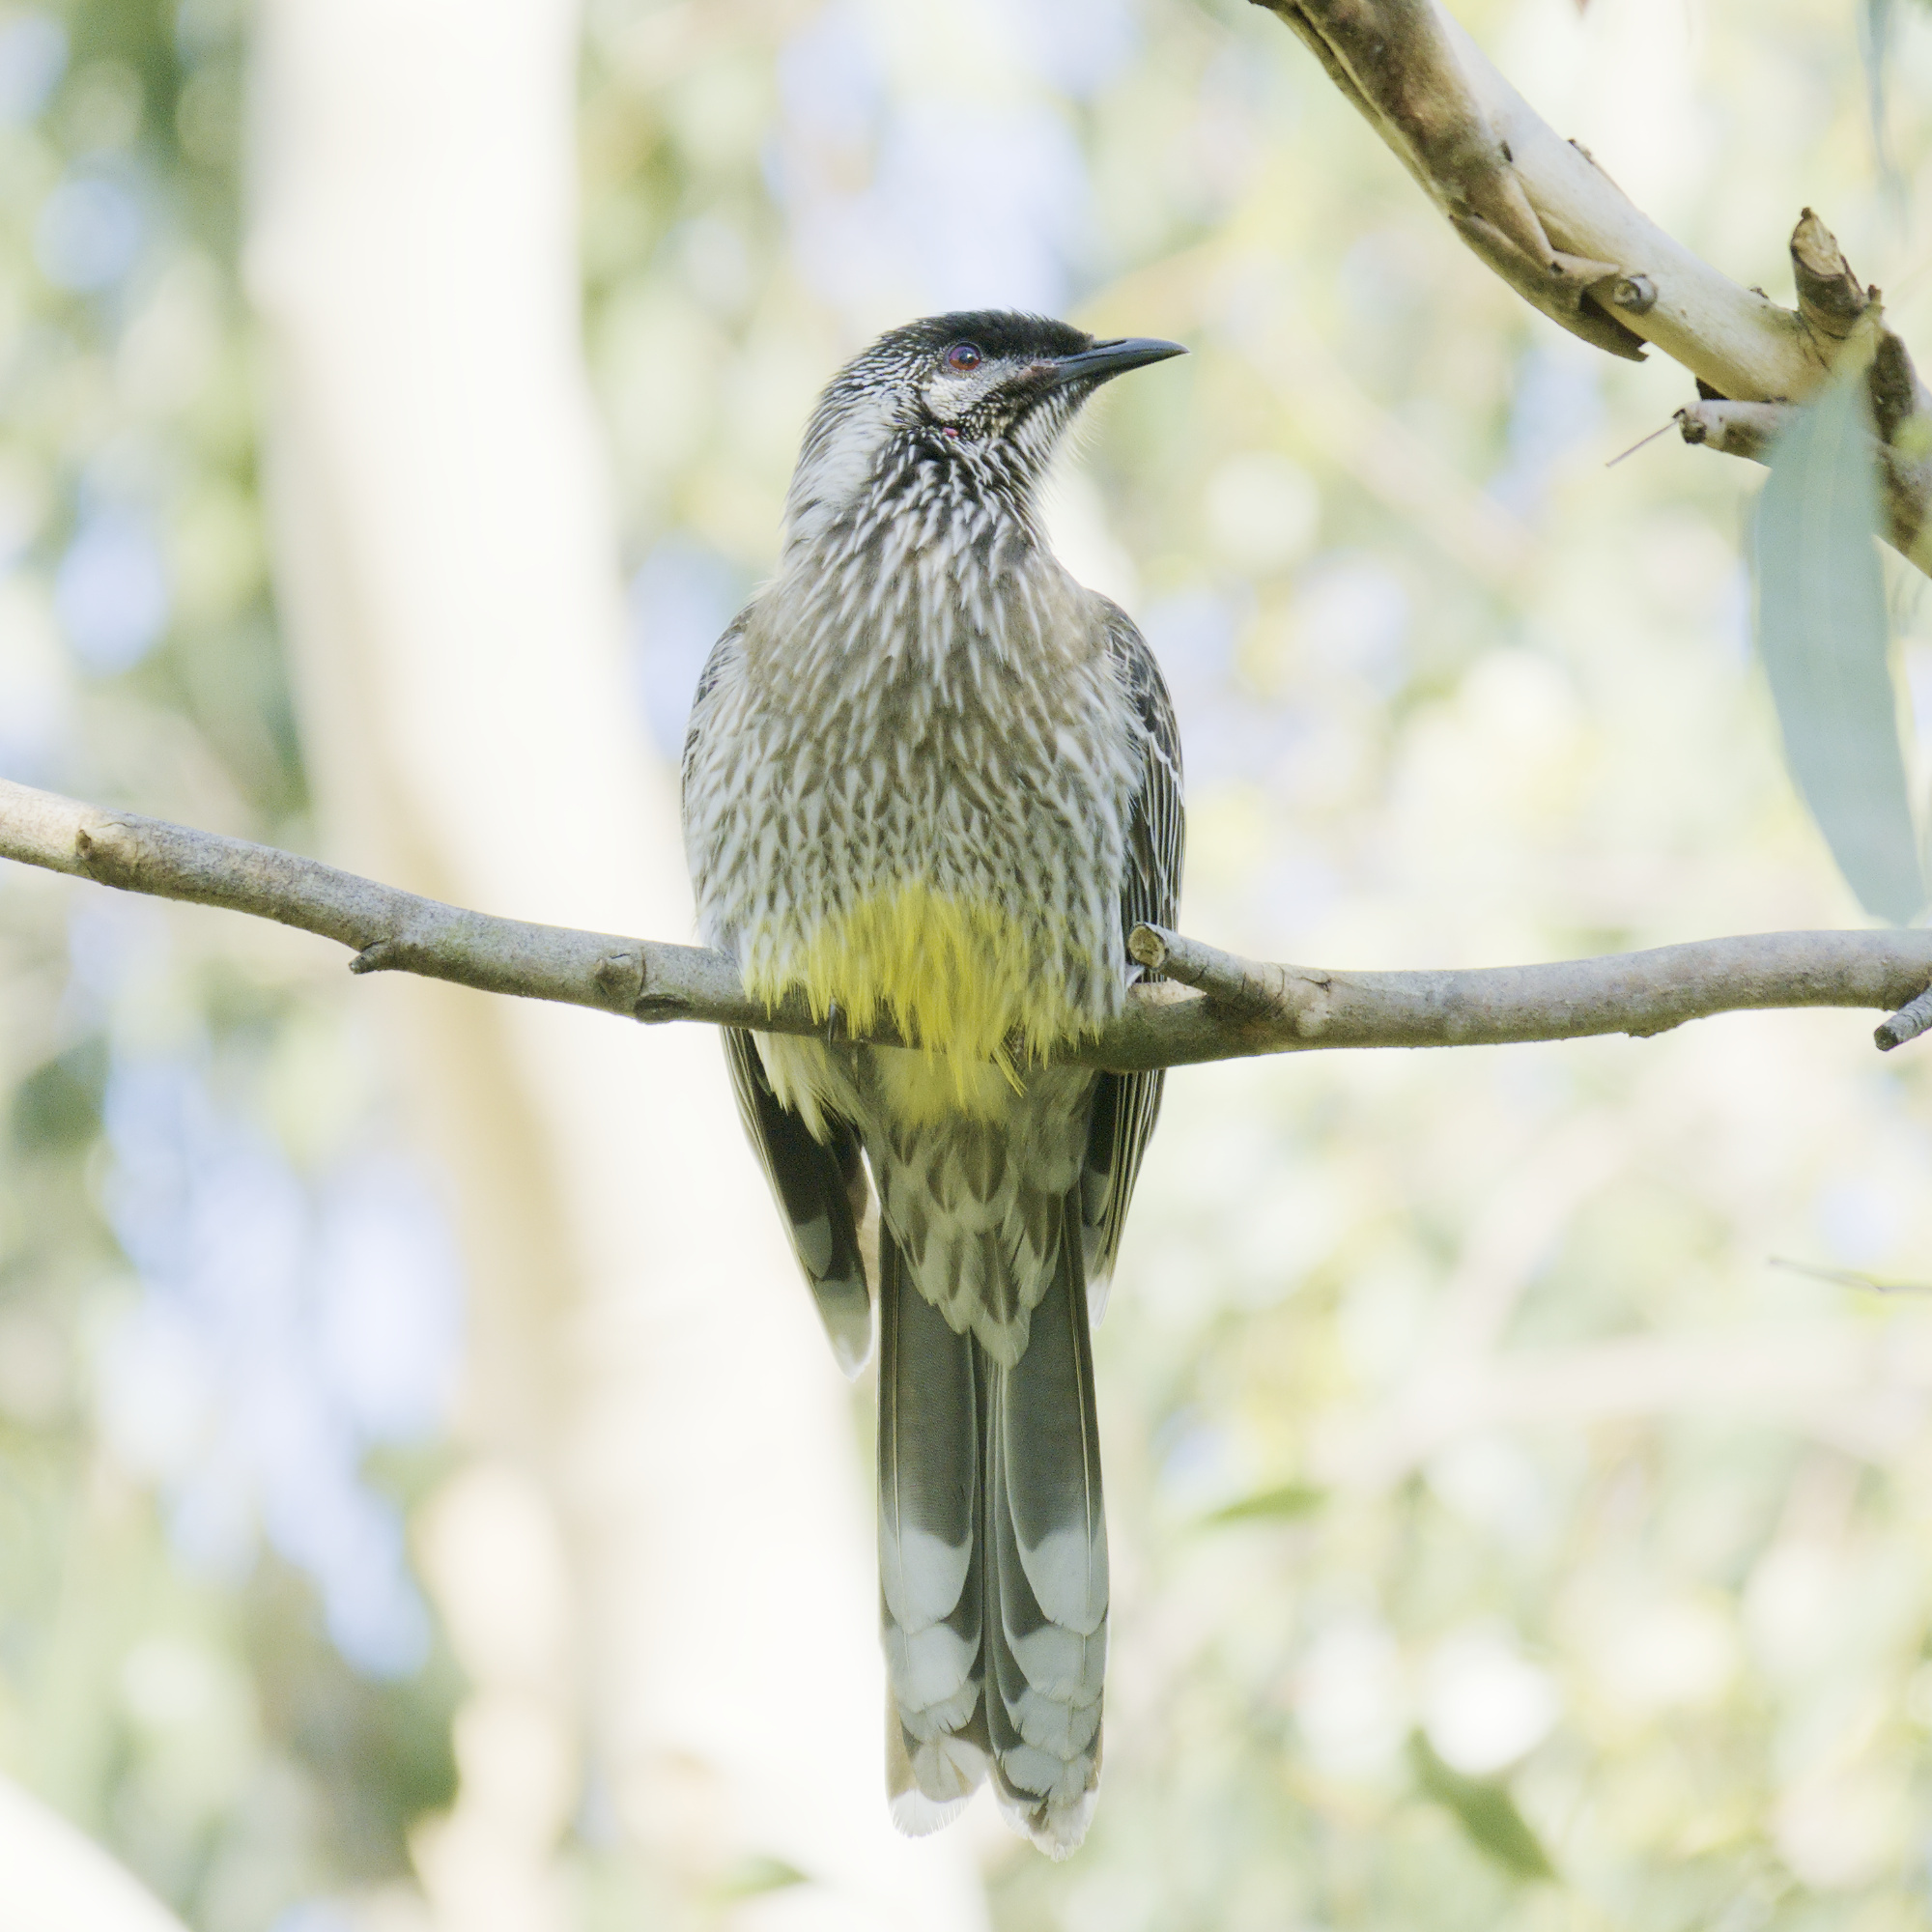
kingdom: Animalia
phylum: Chordata
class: Aves
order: Passeriformes
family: Meliphagidae
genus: Anthochaera
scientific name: Anthochaera carunculata
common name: Red wattlebird
